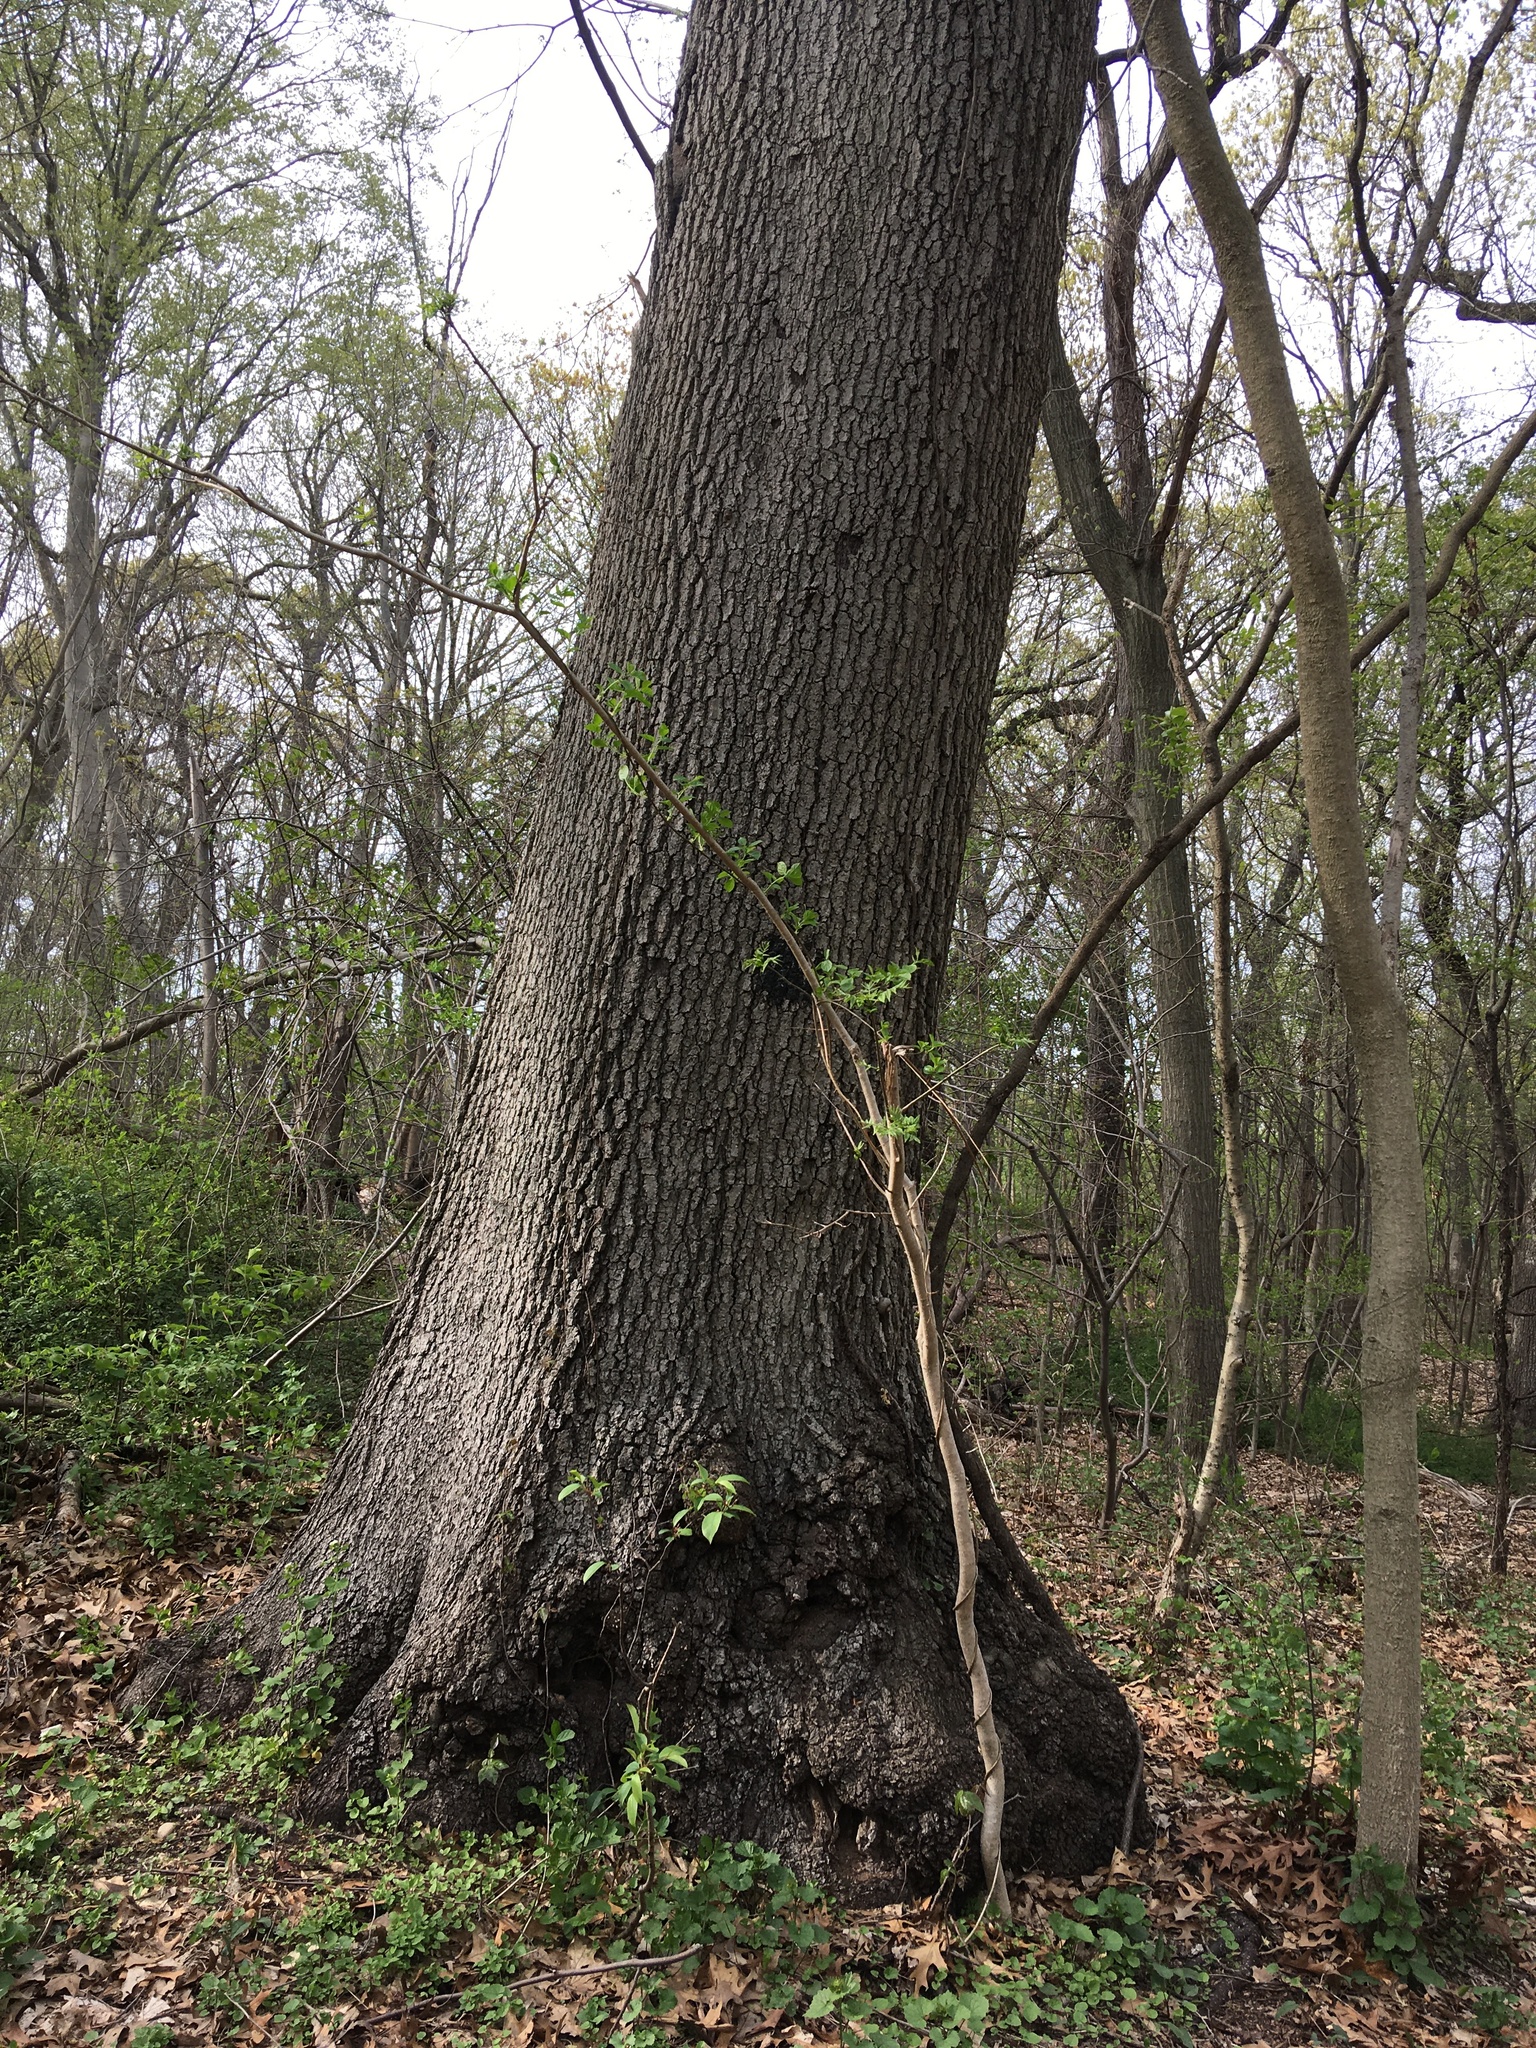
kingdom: Plantae
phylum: Tracheophyta
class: Magnoliopsida
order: Fagales
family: Fagaceae
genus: Quercus
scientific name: Quercus velutina
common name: Black oak
